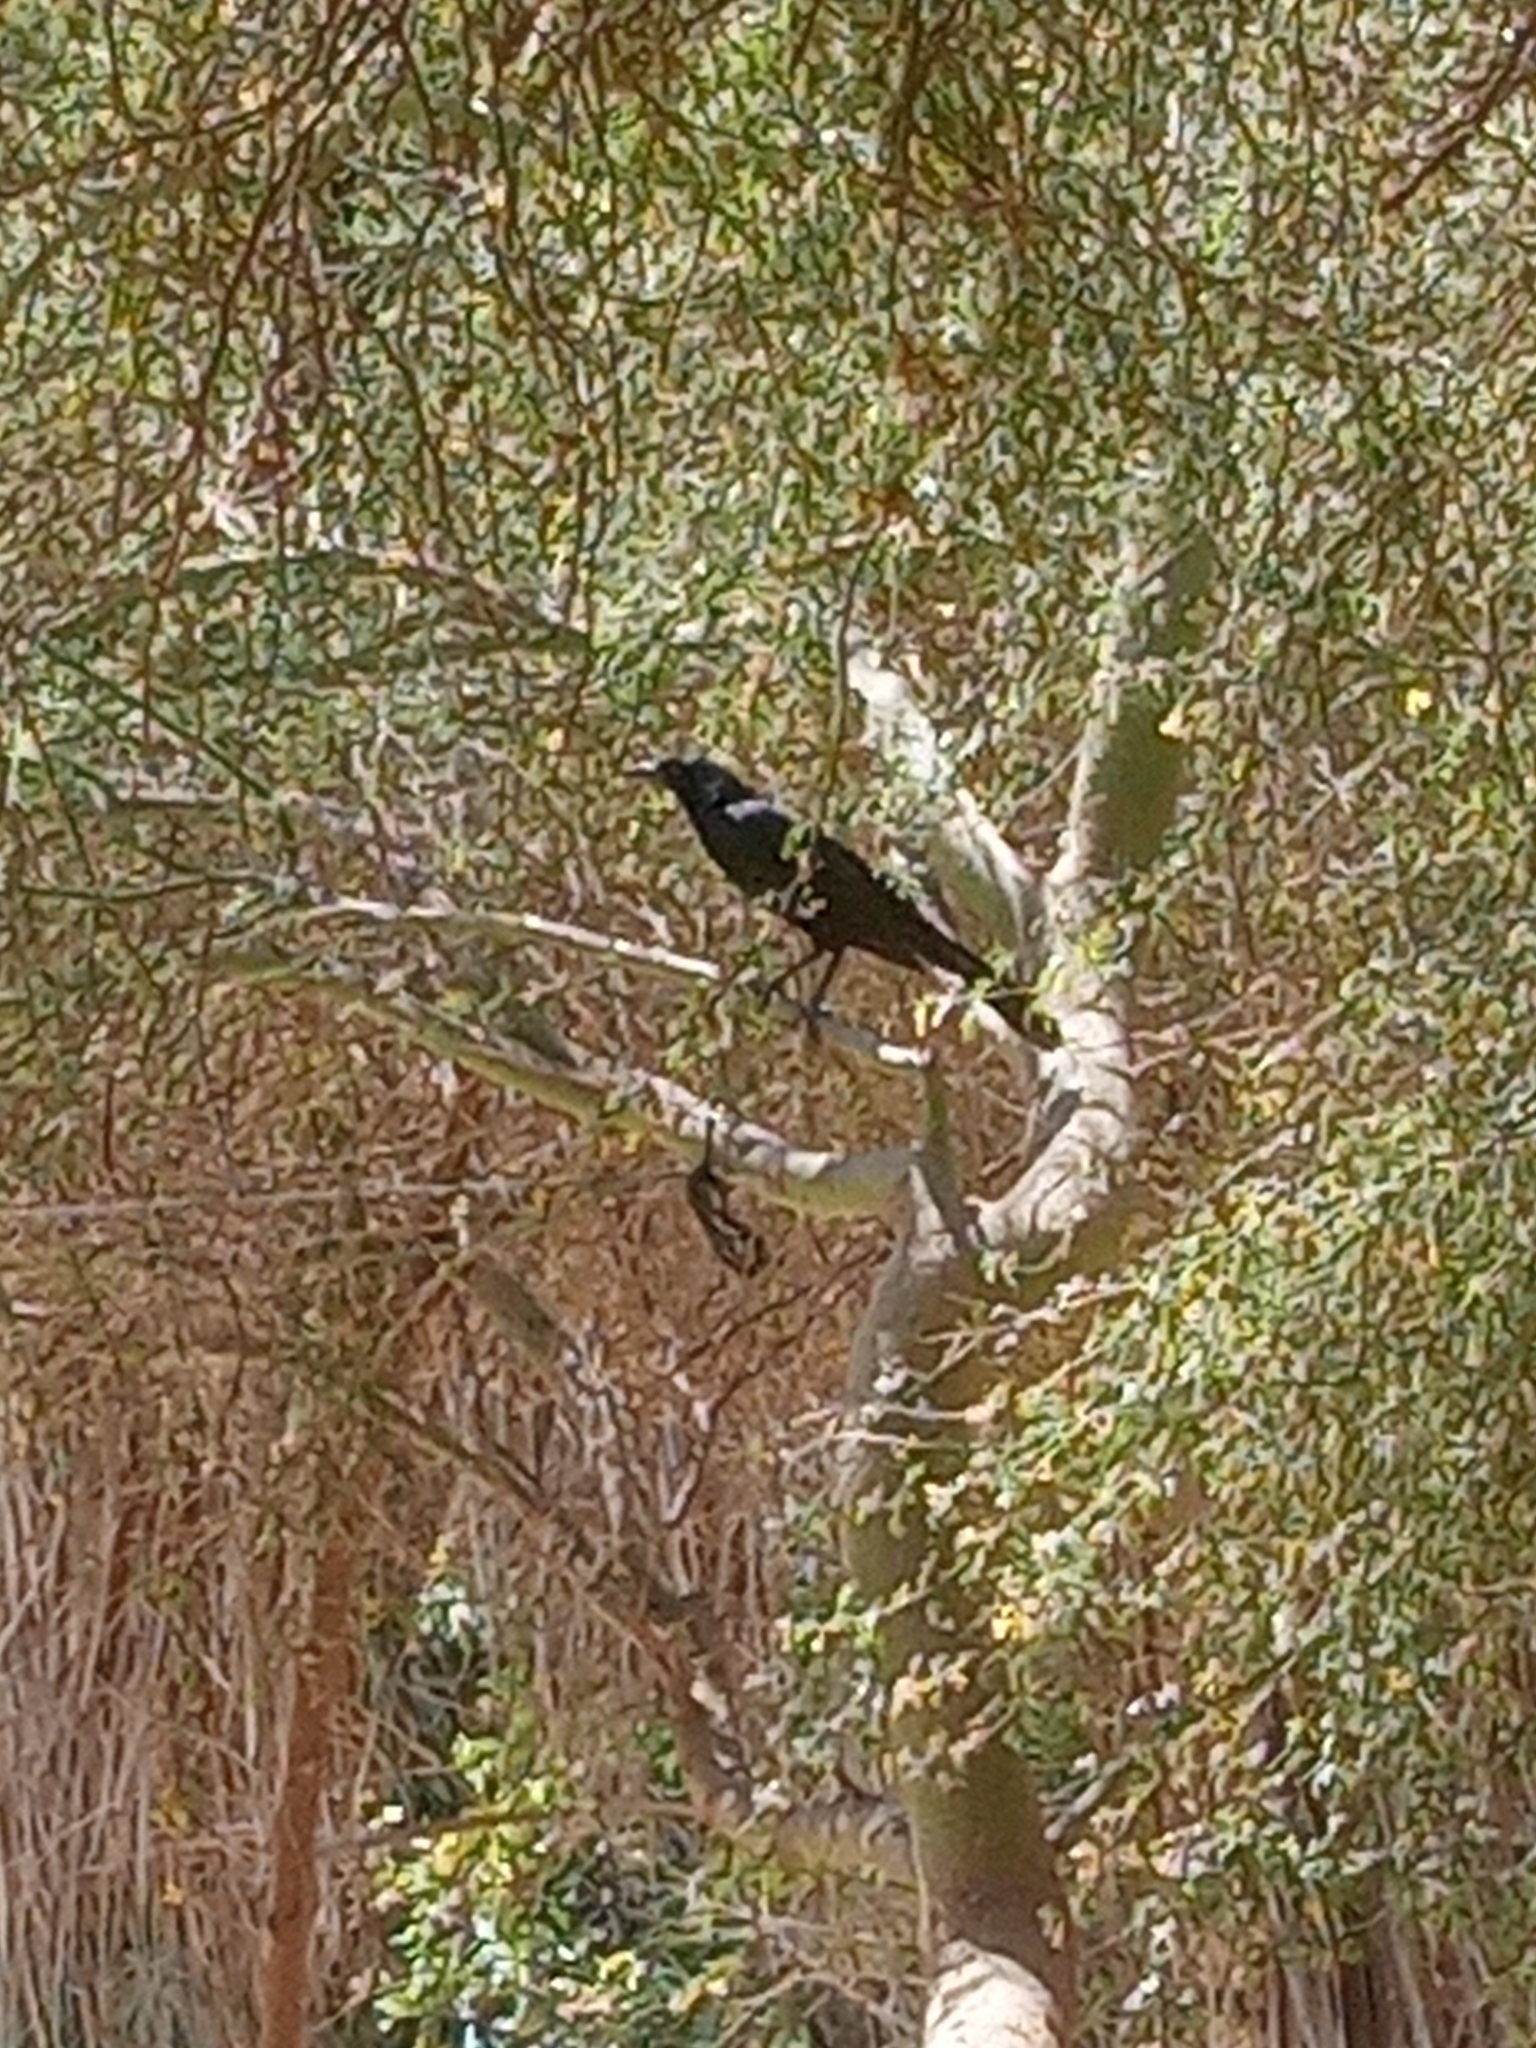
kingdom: Animalia
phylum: Chordata
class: Aves
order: Passeriformes
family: Icteridae
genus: Quiscalus
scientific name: Quiscalus mexicanus
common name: Great-tailed grackle
